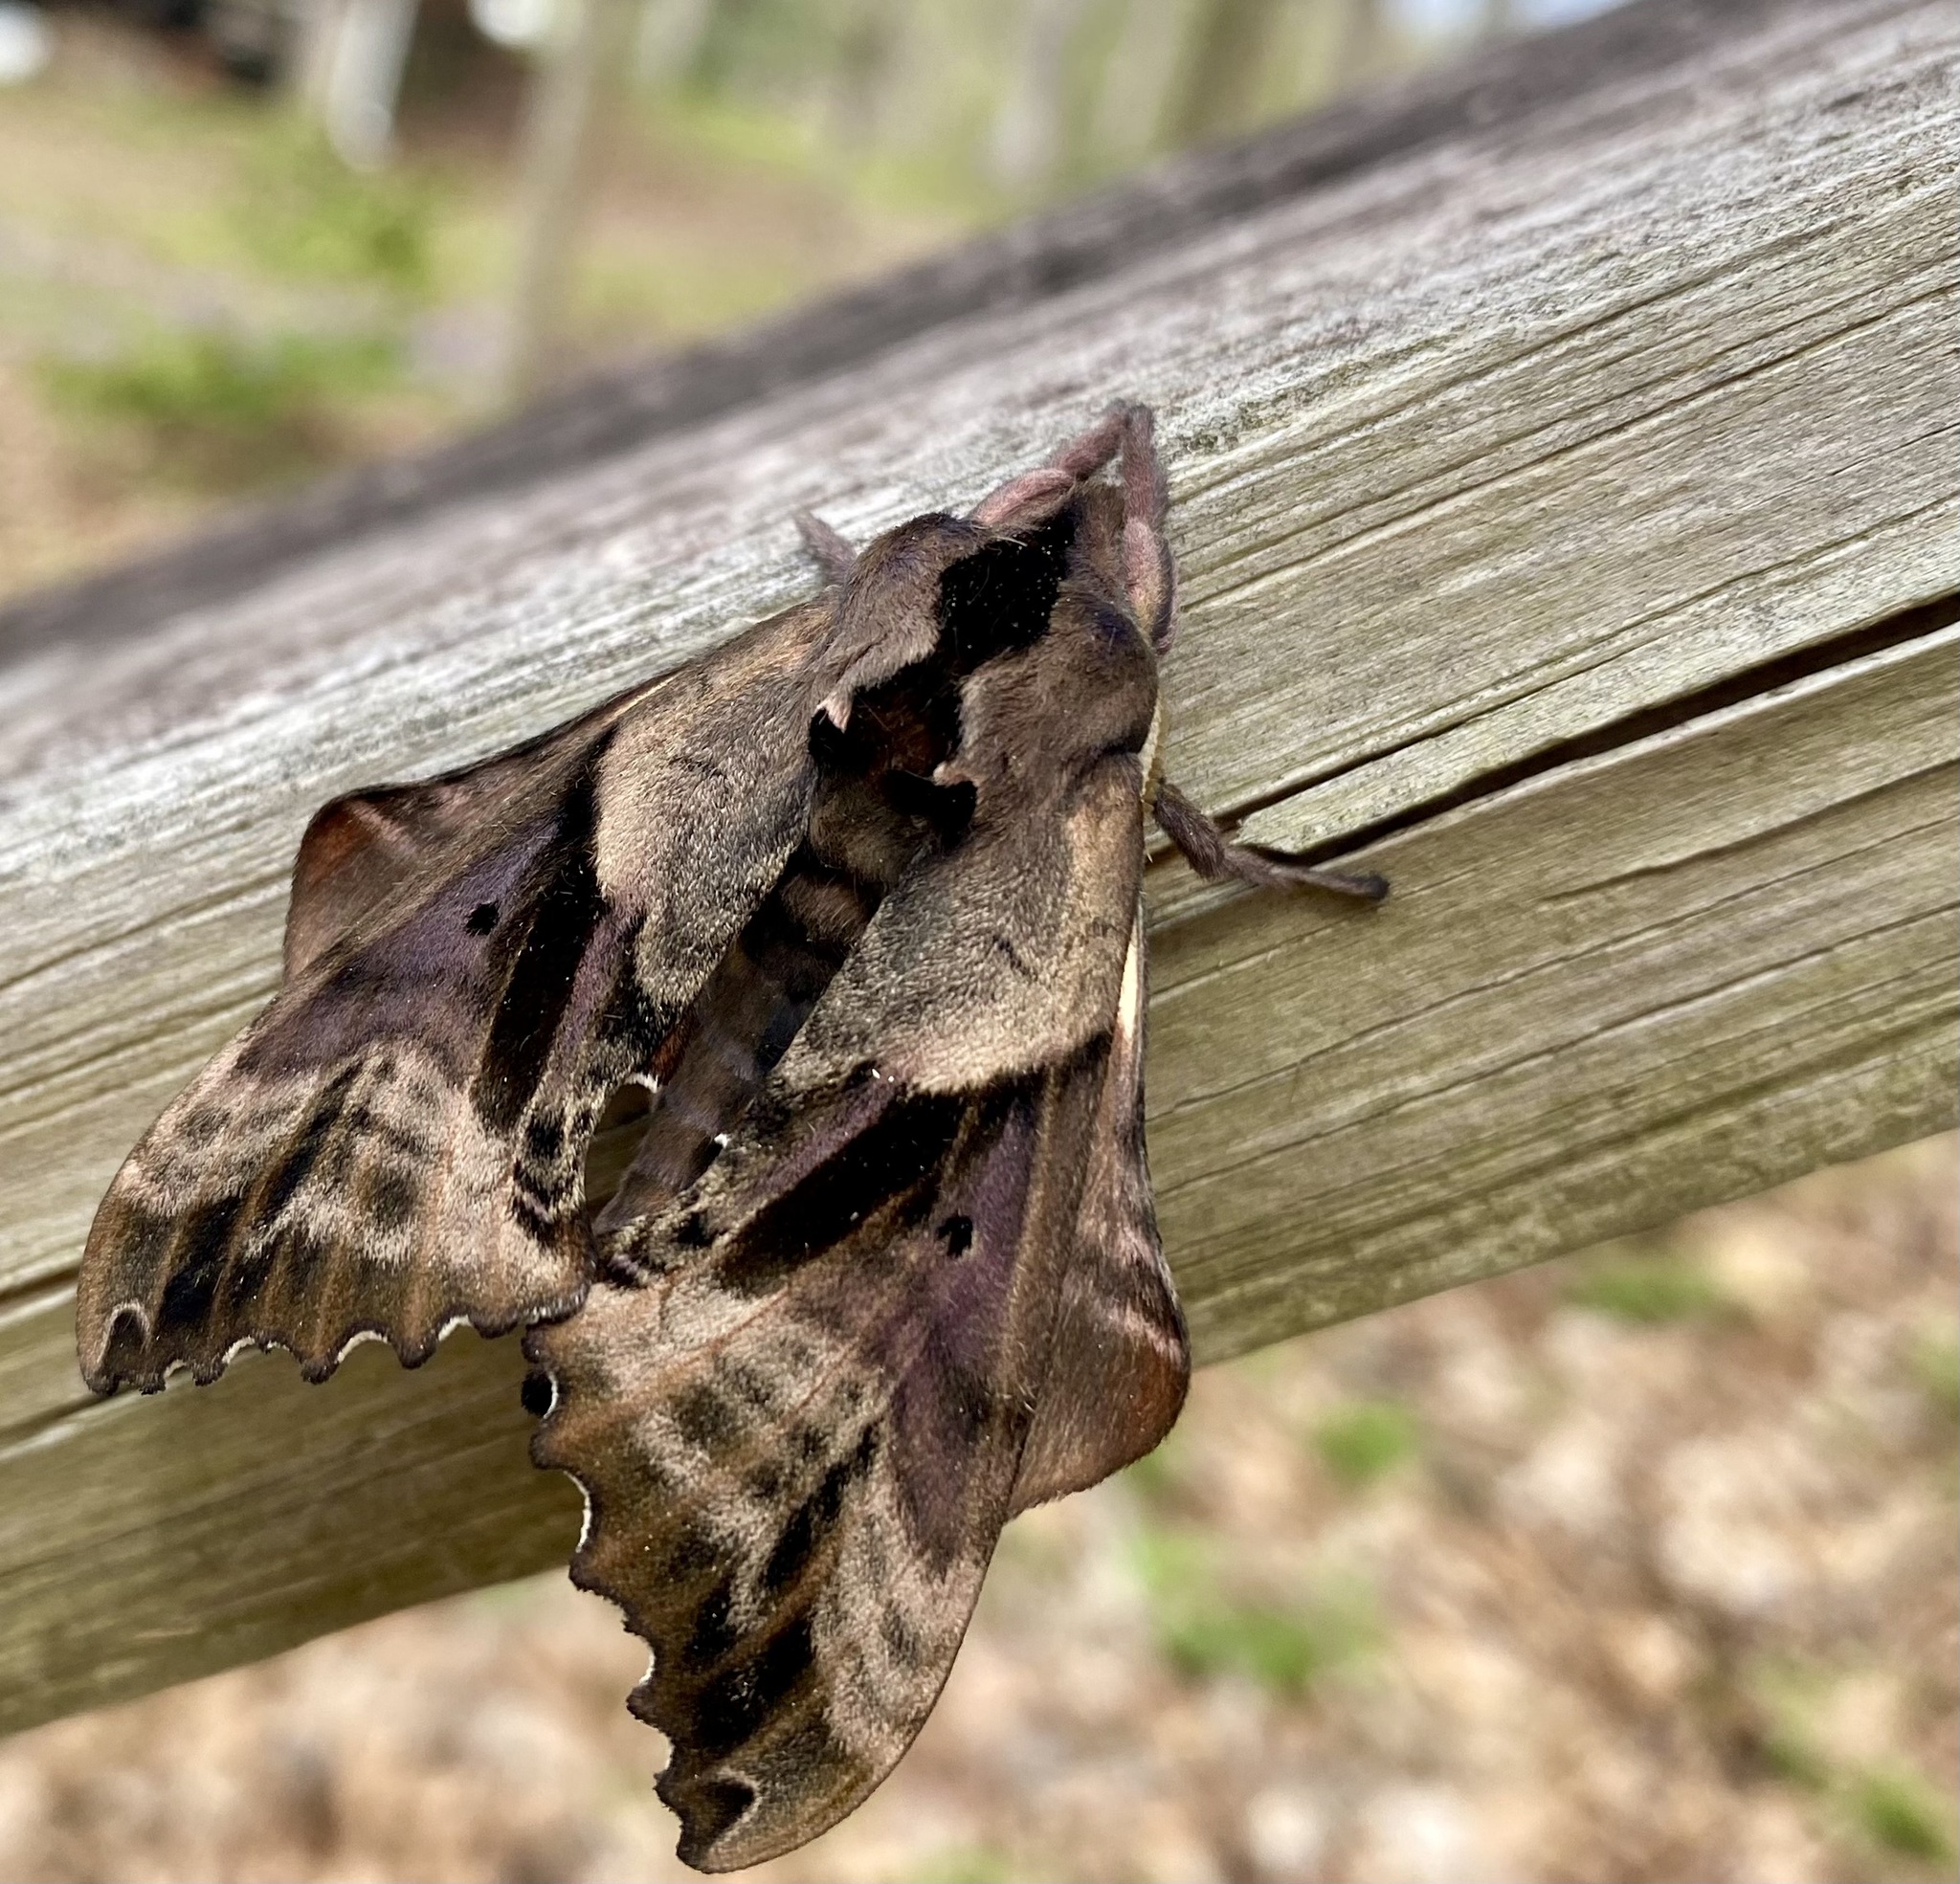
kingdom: Animalia
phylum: Arthropoda
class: Insecta
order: Lepidoptera
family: Sphingidae
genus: Paonias
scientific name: Paonias excaecata
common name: Blind-eyed sphinx
